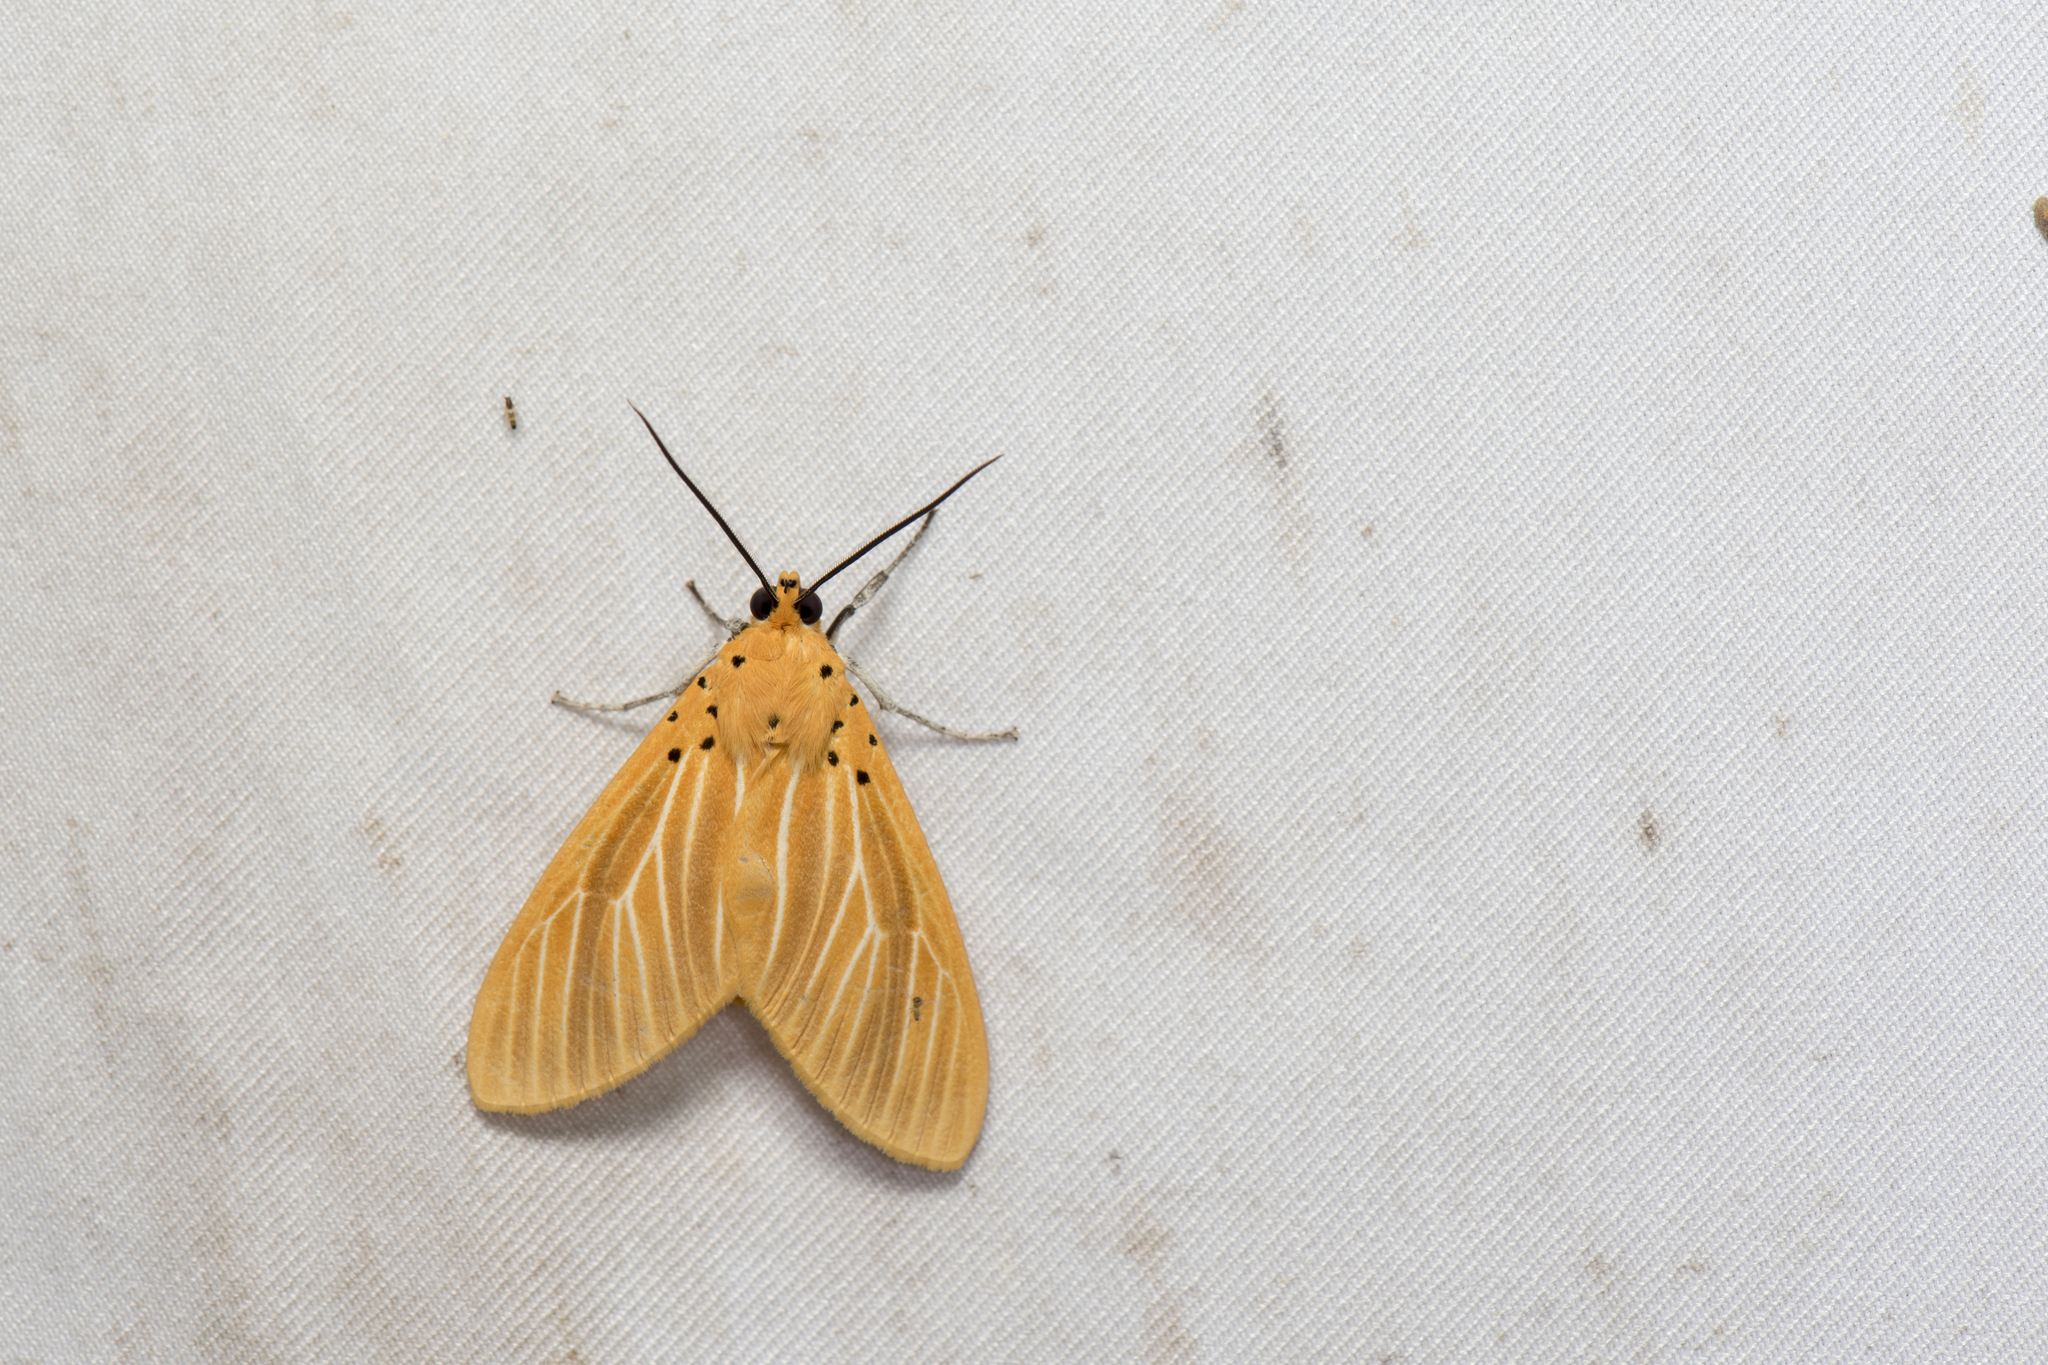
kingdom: Animalia
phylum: Arthropoda
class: Insecta
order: Lepidoptera
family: Erebidae
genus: Asota
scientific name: Asota egens
